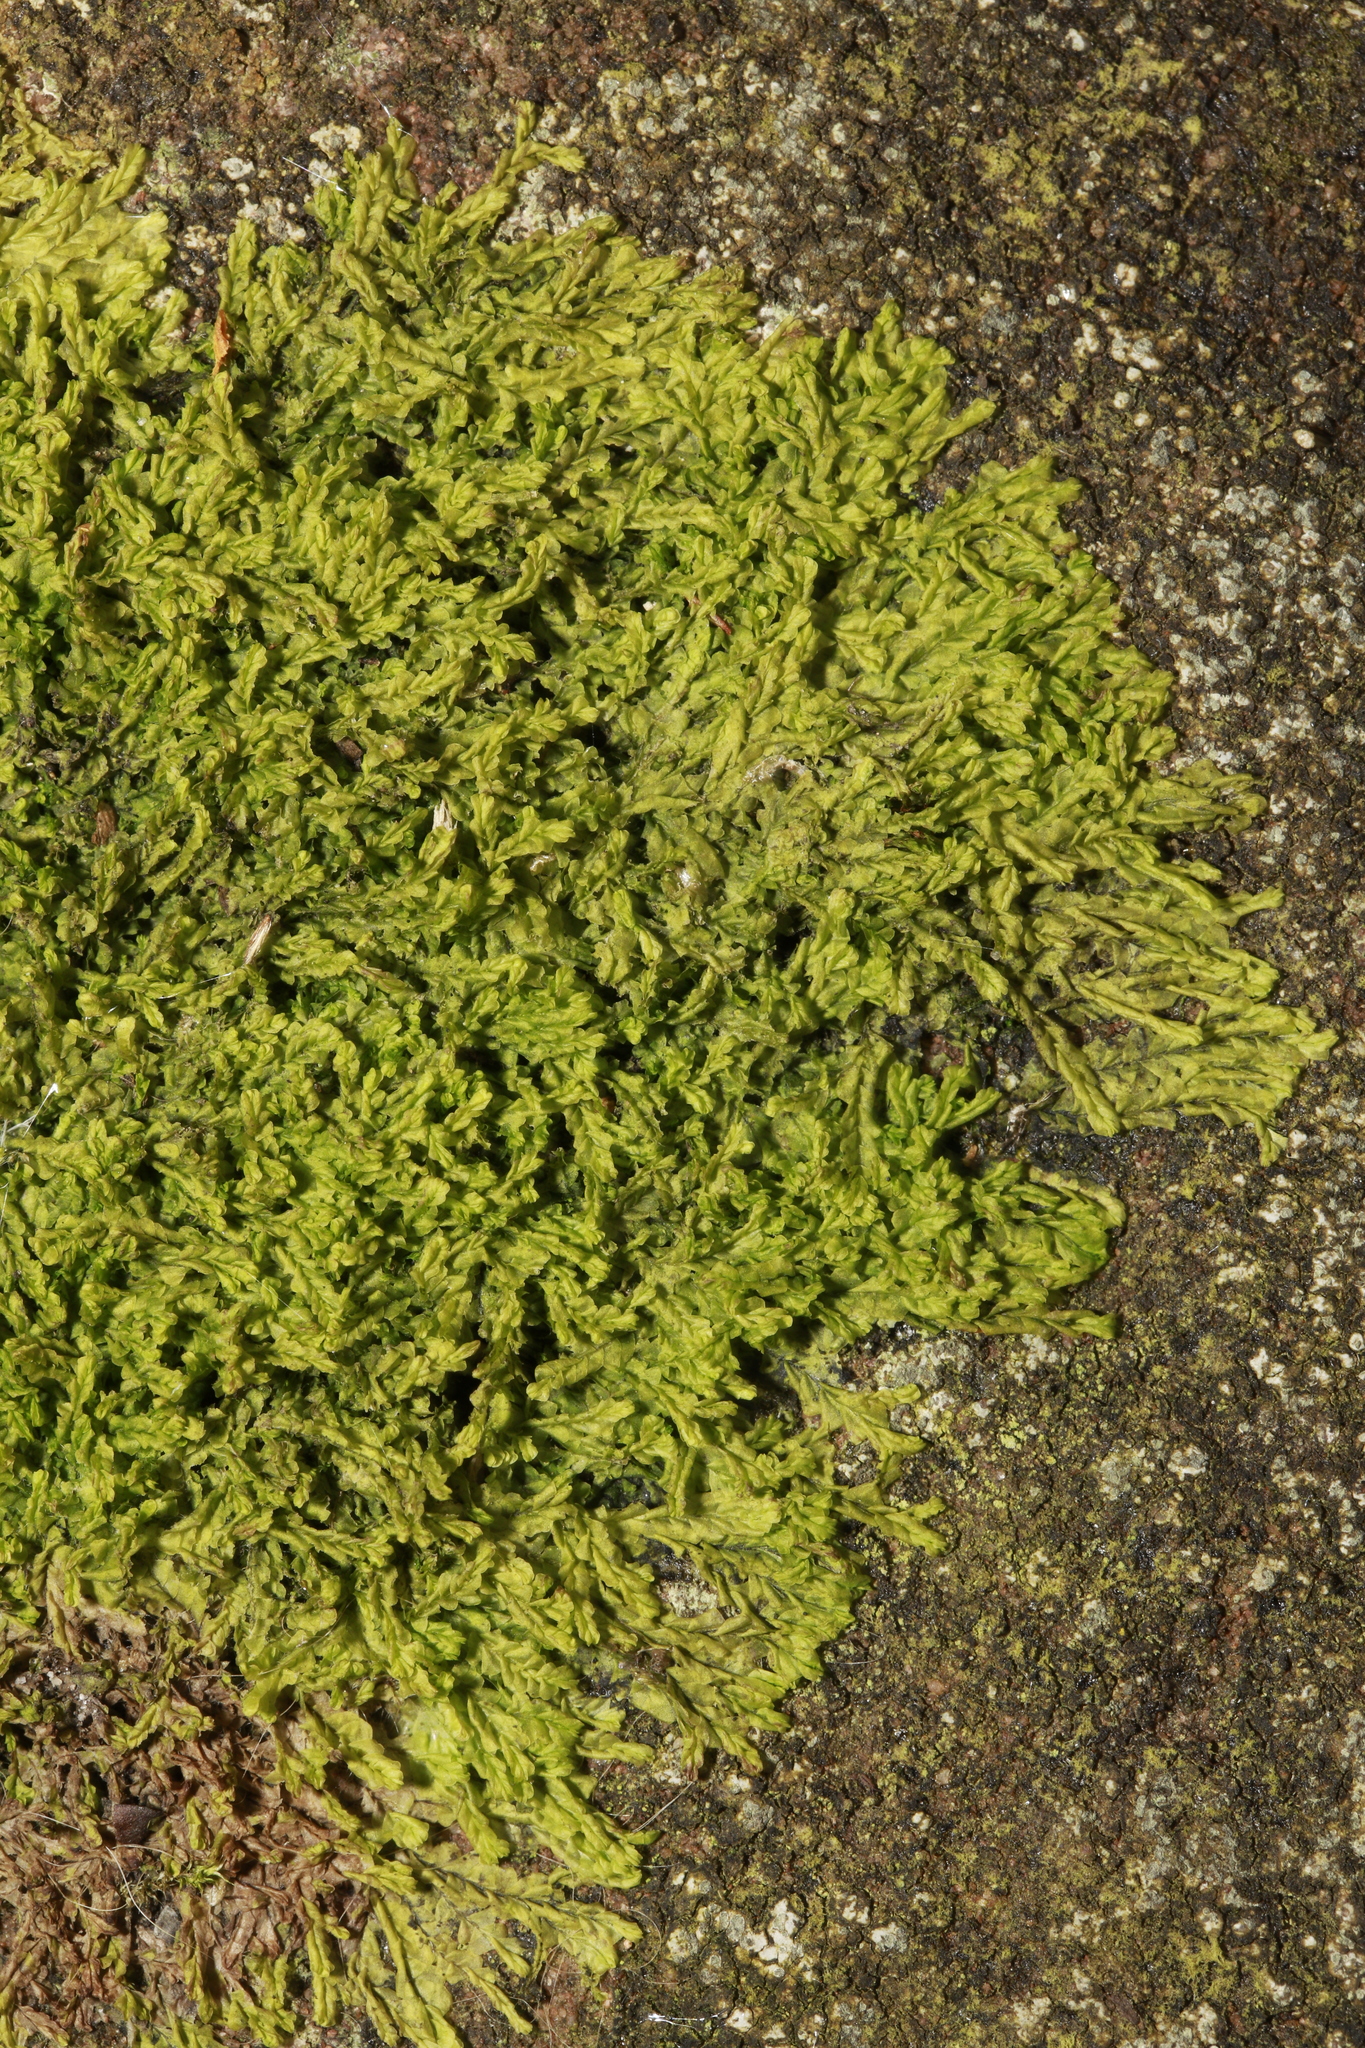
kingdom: Plantae
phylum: Marchantiophyta
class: Jungermanniopsida
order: Jungermanniales
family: Lophocoleaceae
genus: Lophocolea
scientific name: Lophocolea heterophylla
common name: Variable-leaved crestwort
